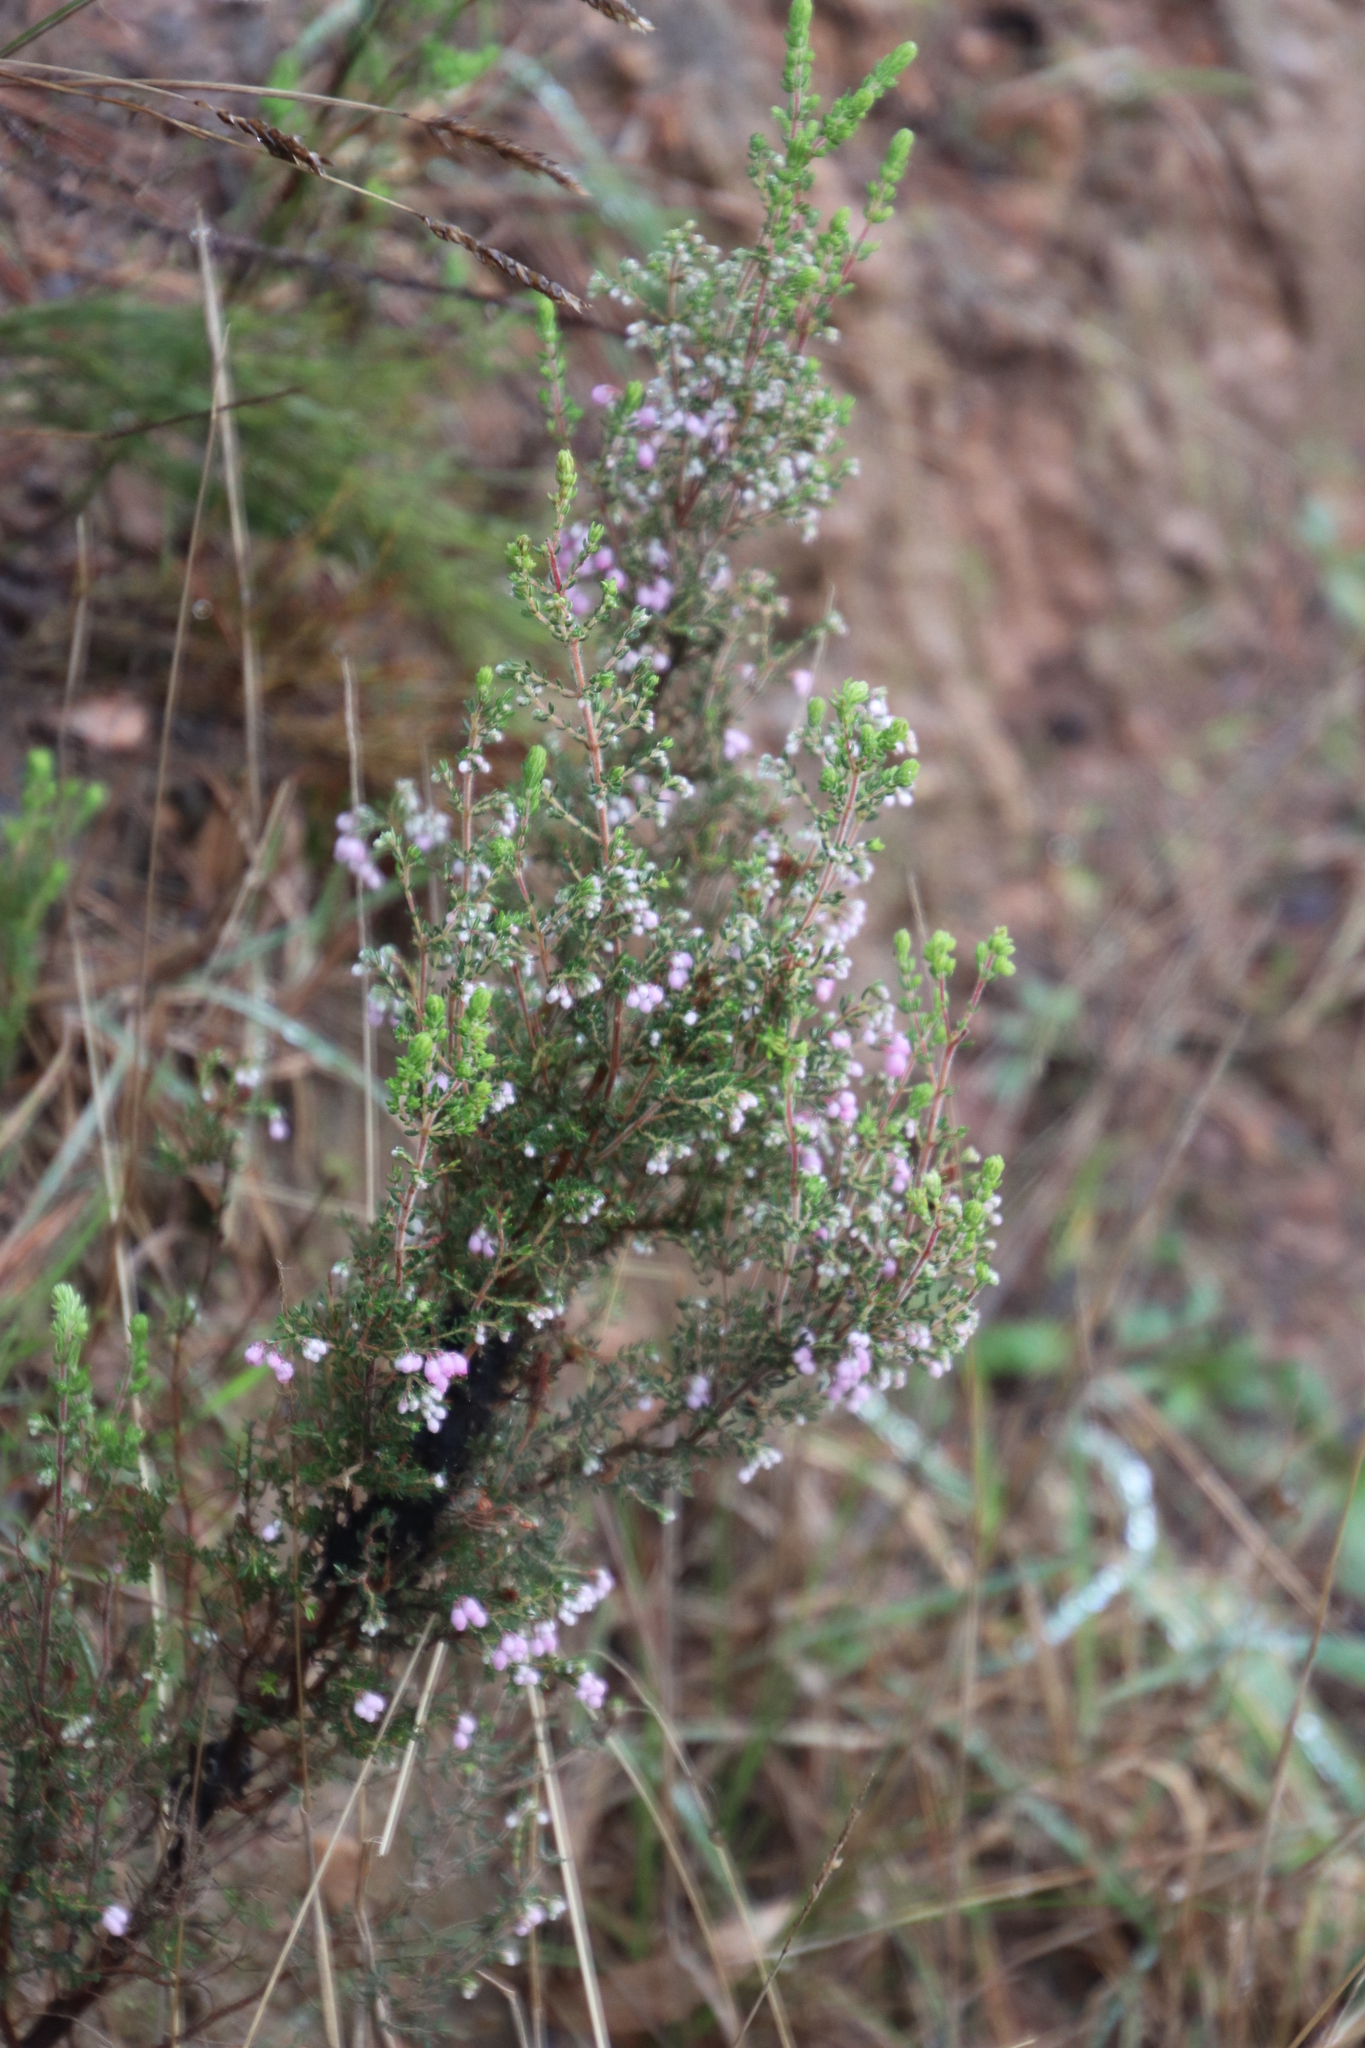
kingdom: Plantae
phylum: Tracheophyta
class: Magnoliopsida
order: Ericales
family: Ericaceae
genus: Erica
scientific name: Erica hirtiflora
